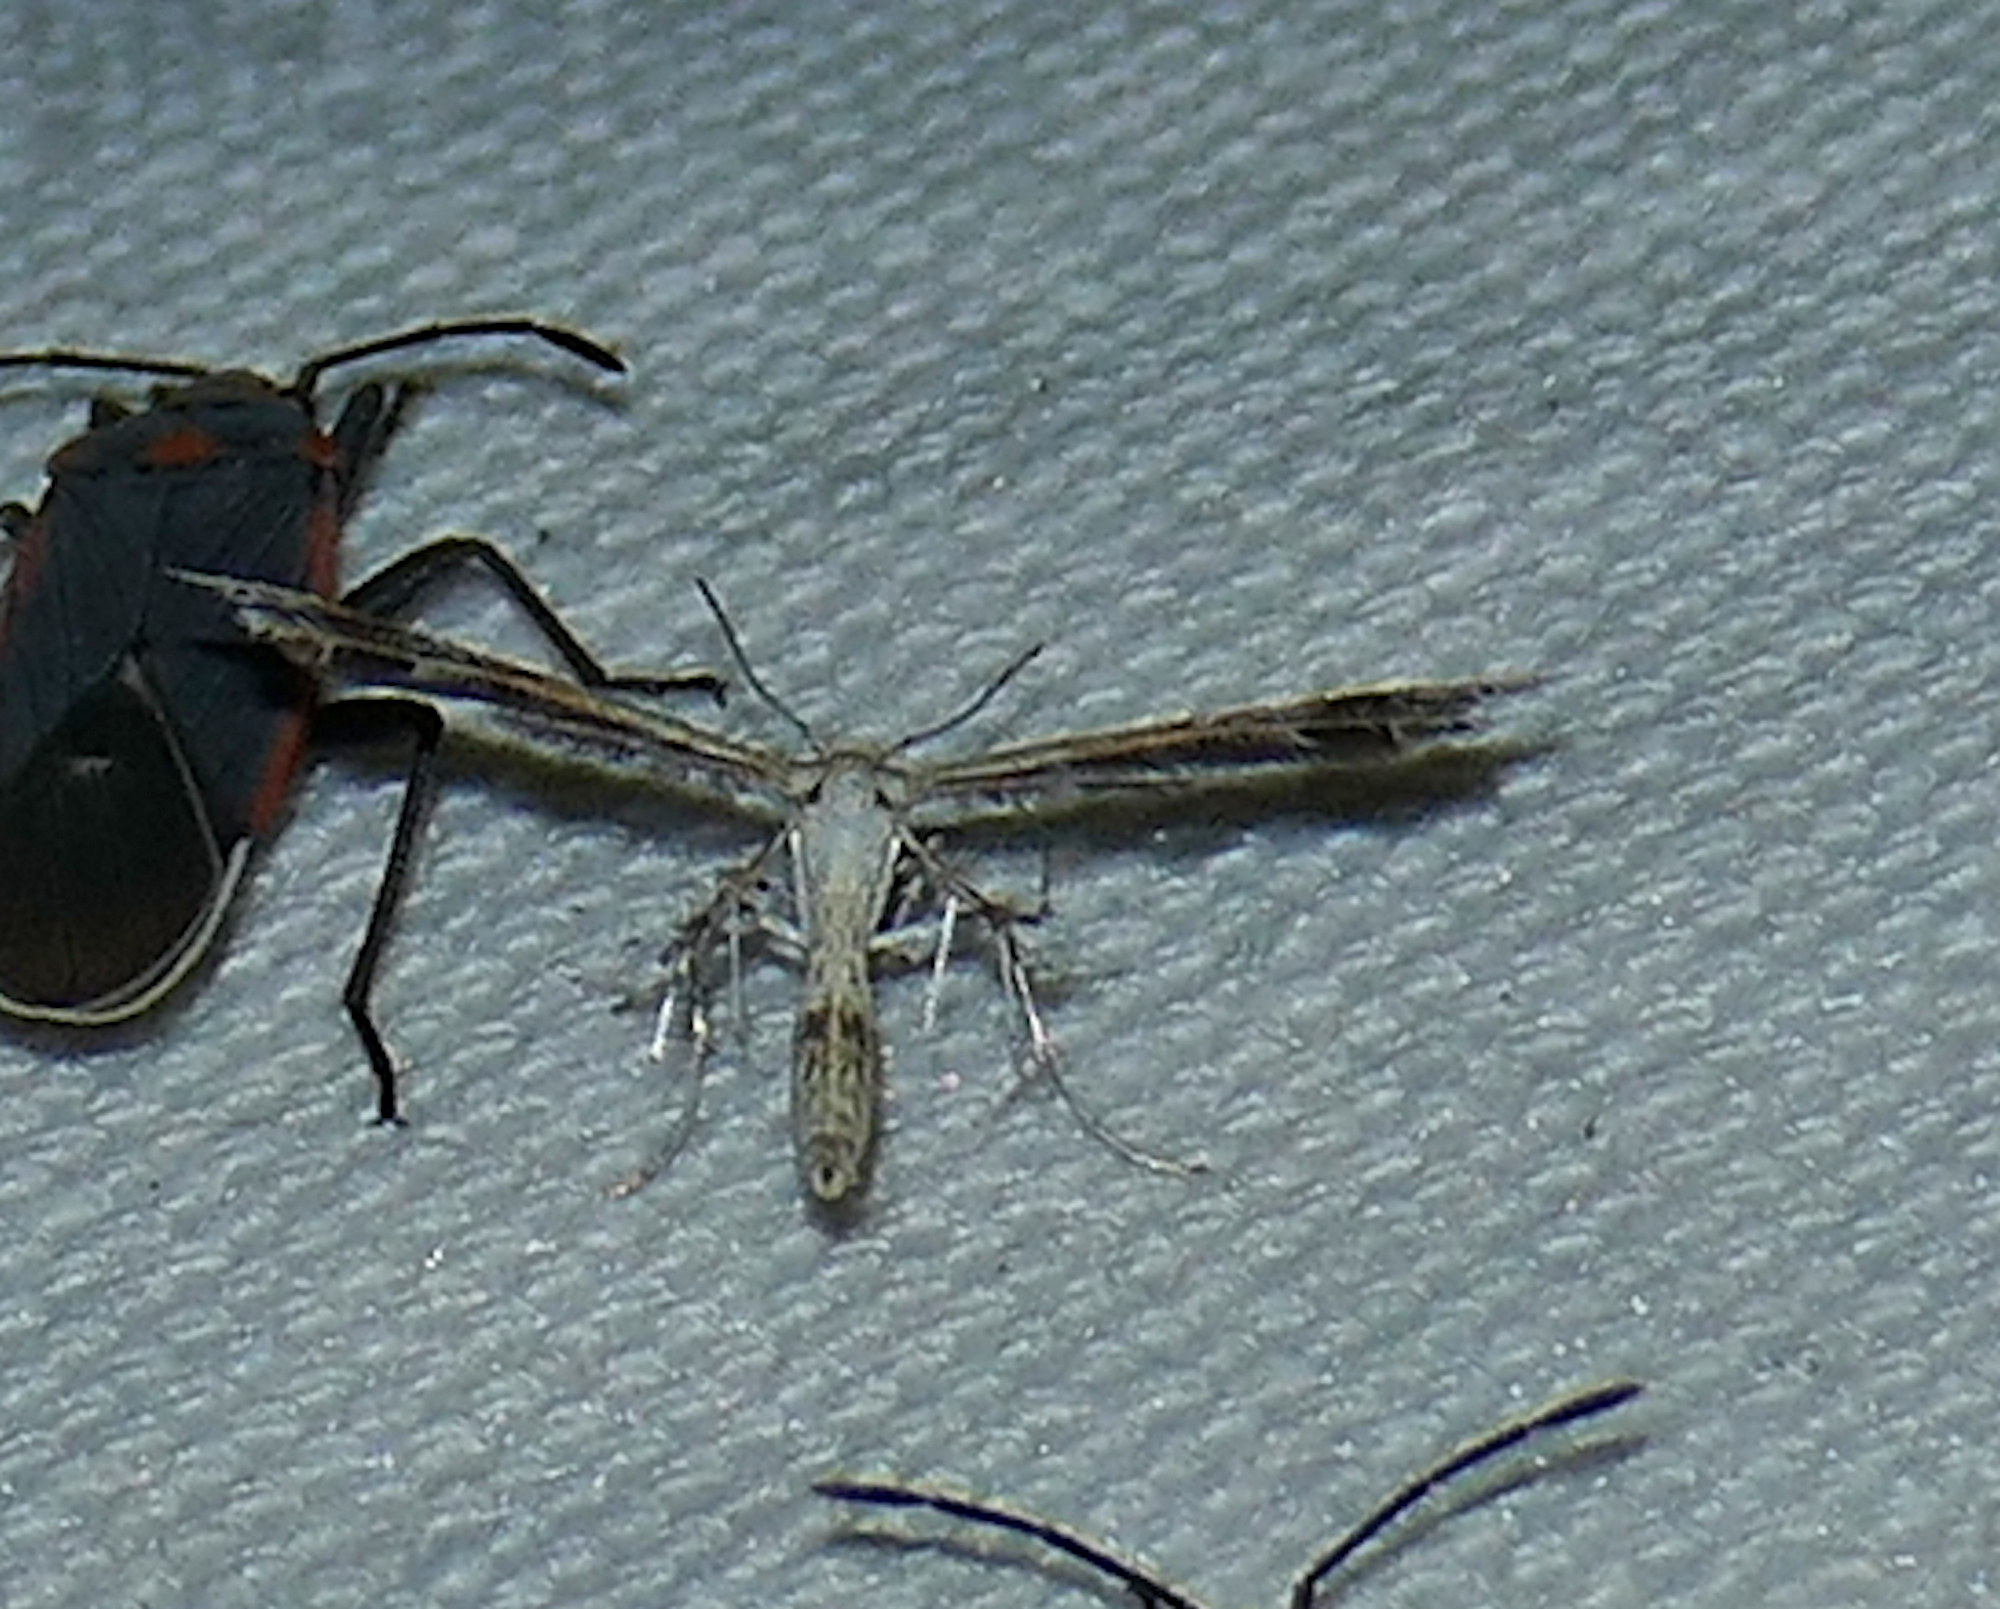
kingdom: Animalia
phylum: Arthropoda
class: Insecta
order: Lepidoptera
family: Pterophoridae
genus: Dejongia
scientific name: Dejongia californicus
